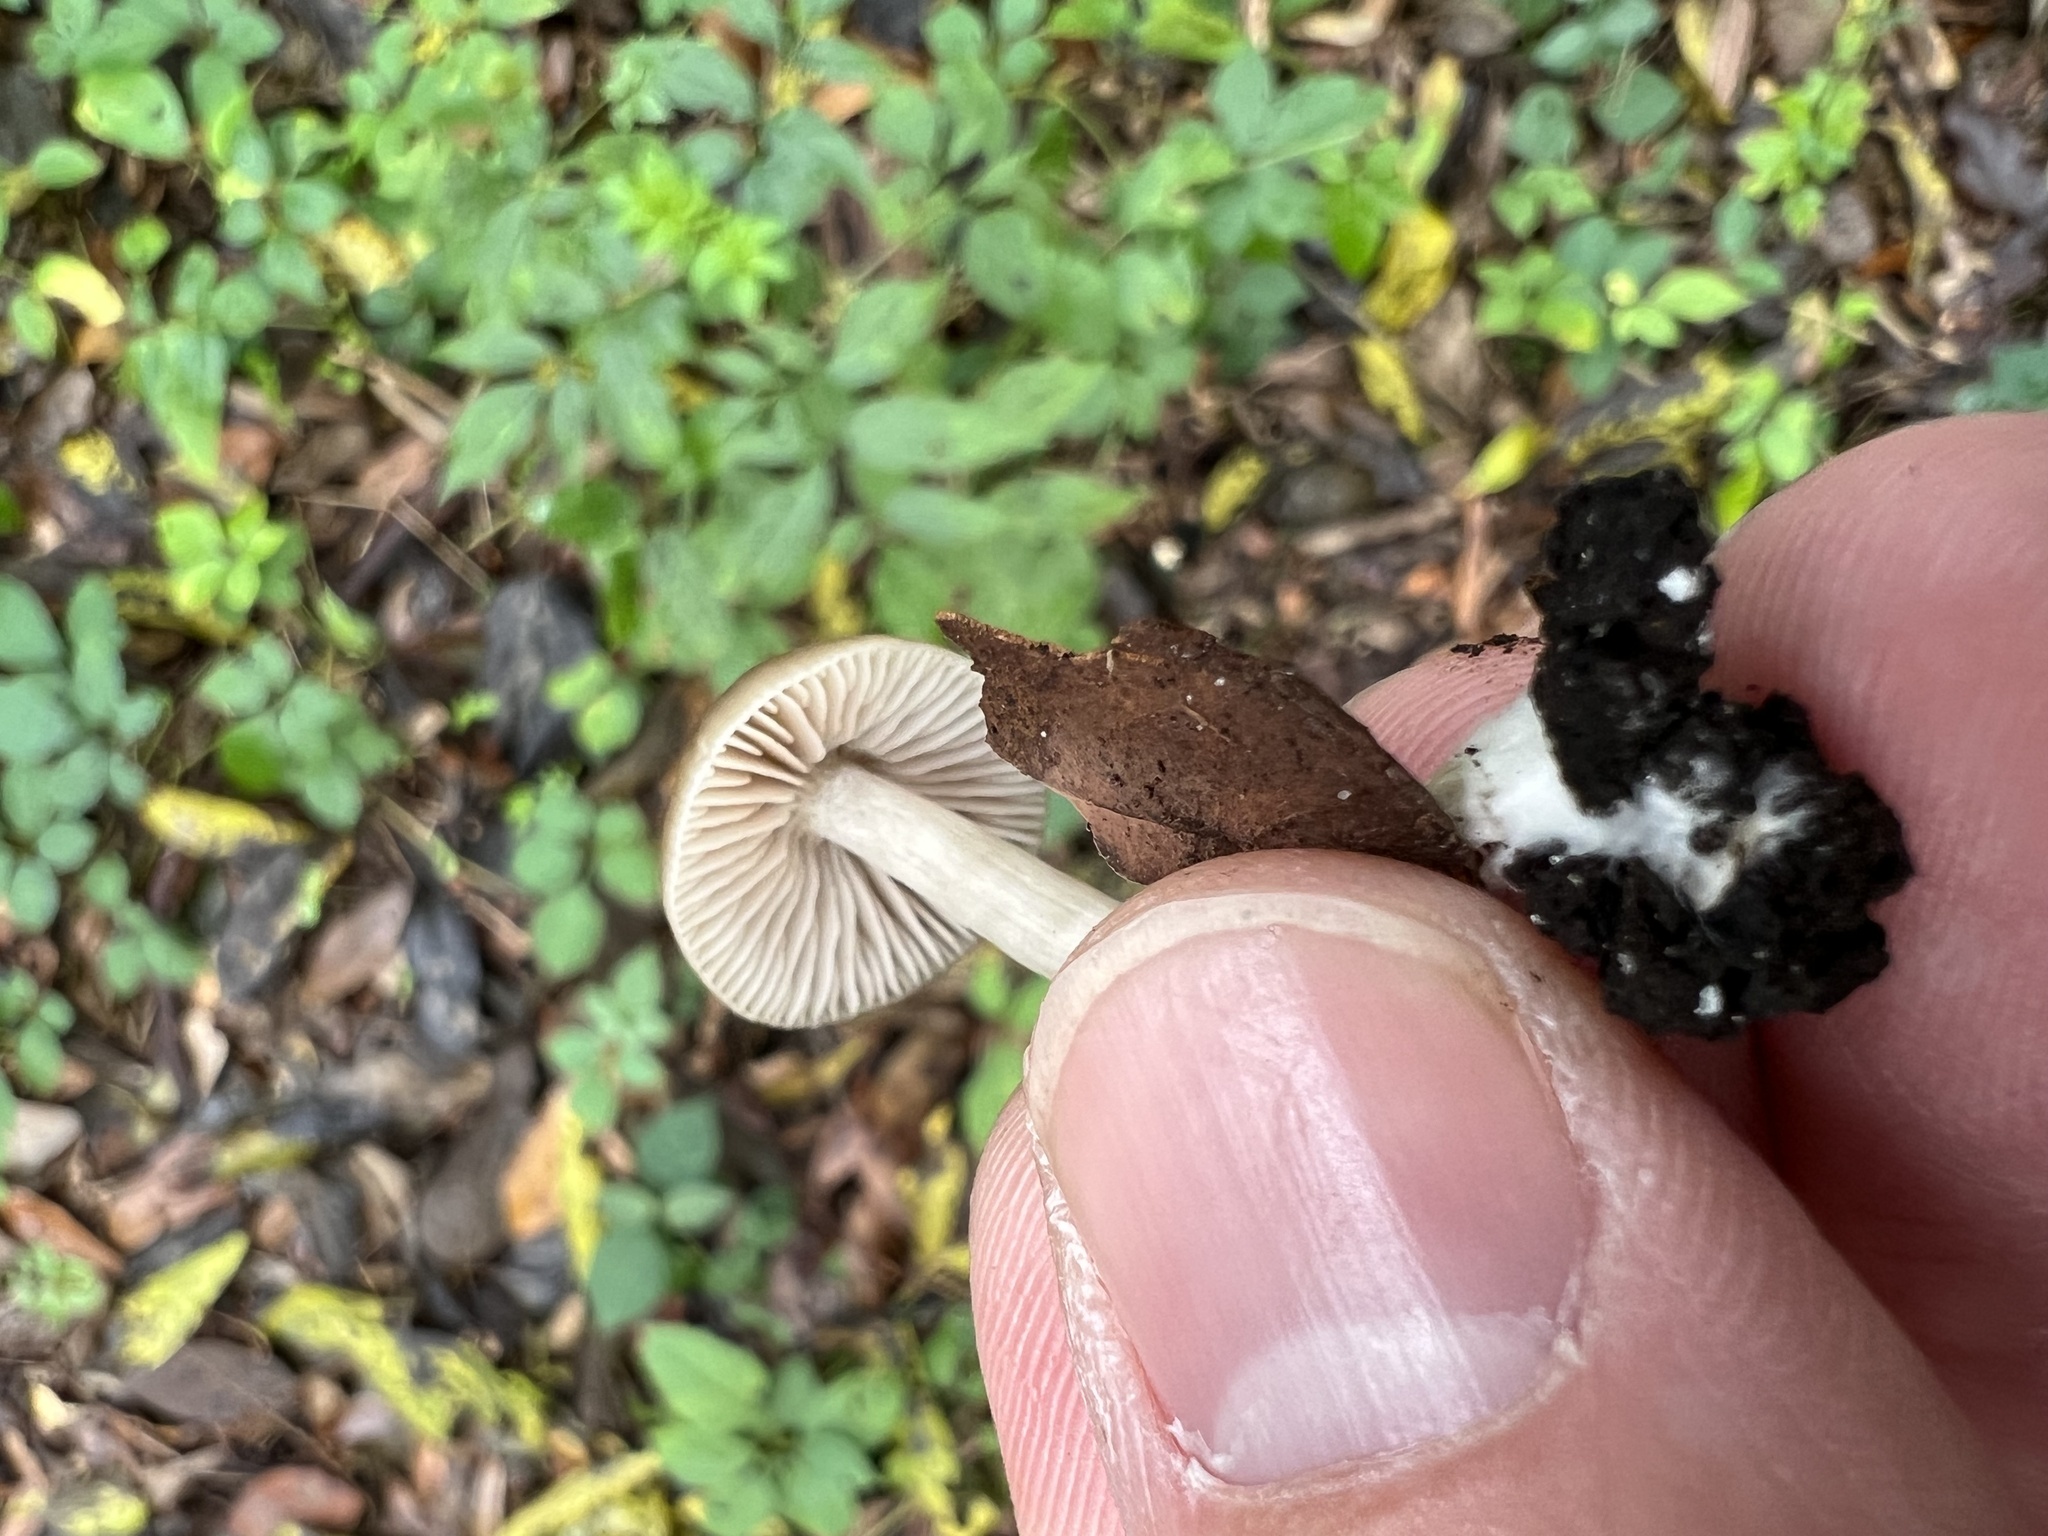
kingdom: Fungi
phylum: Basidiomycota
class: Agaricomycetes
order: Agaricales
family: Entolomataceae
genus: Entoloma
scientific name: Entoloma rhodopolium
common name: Wood pinkgill
